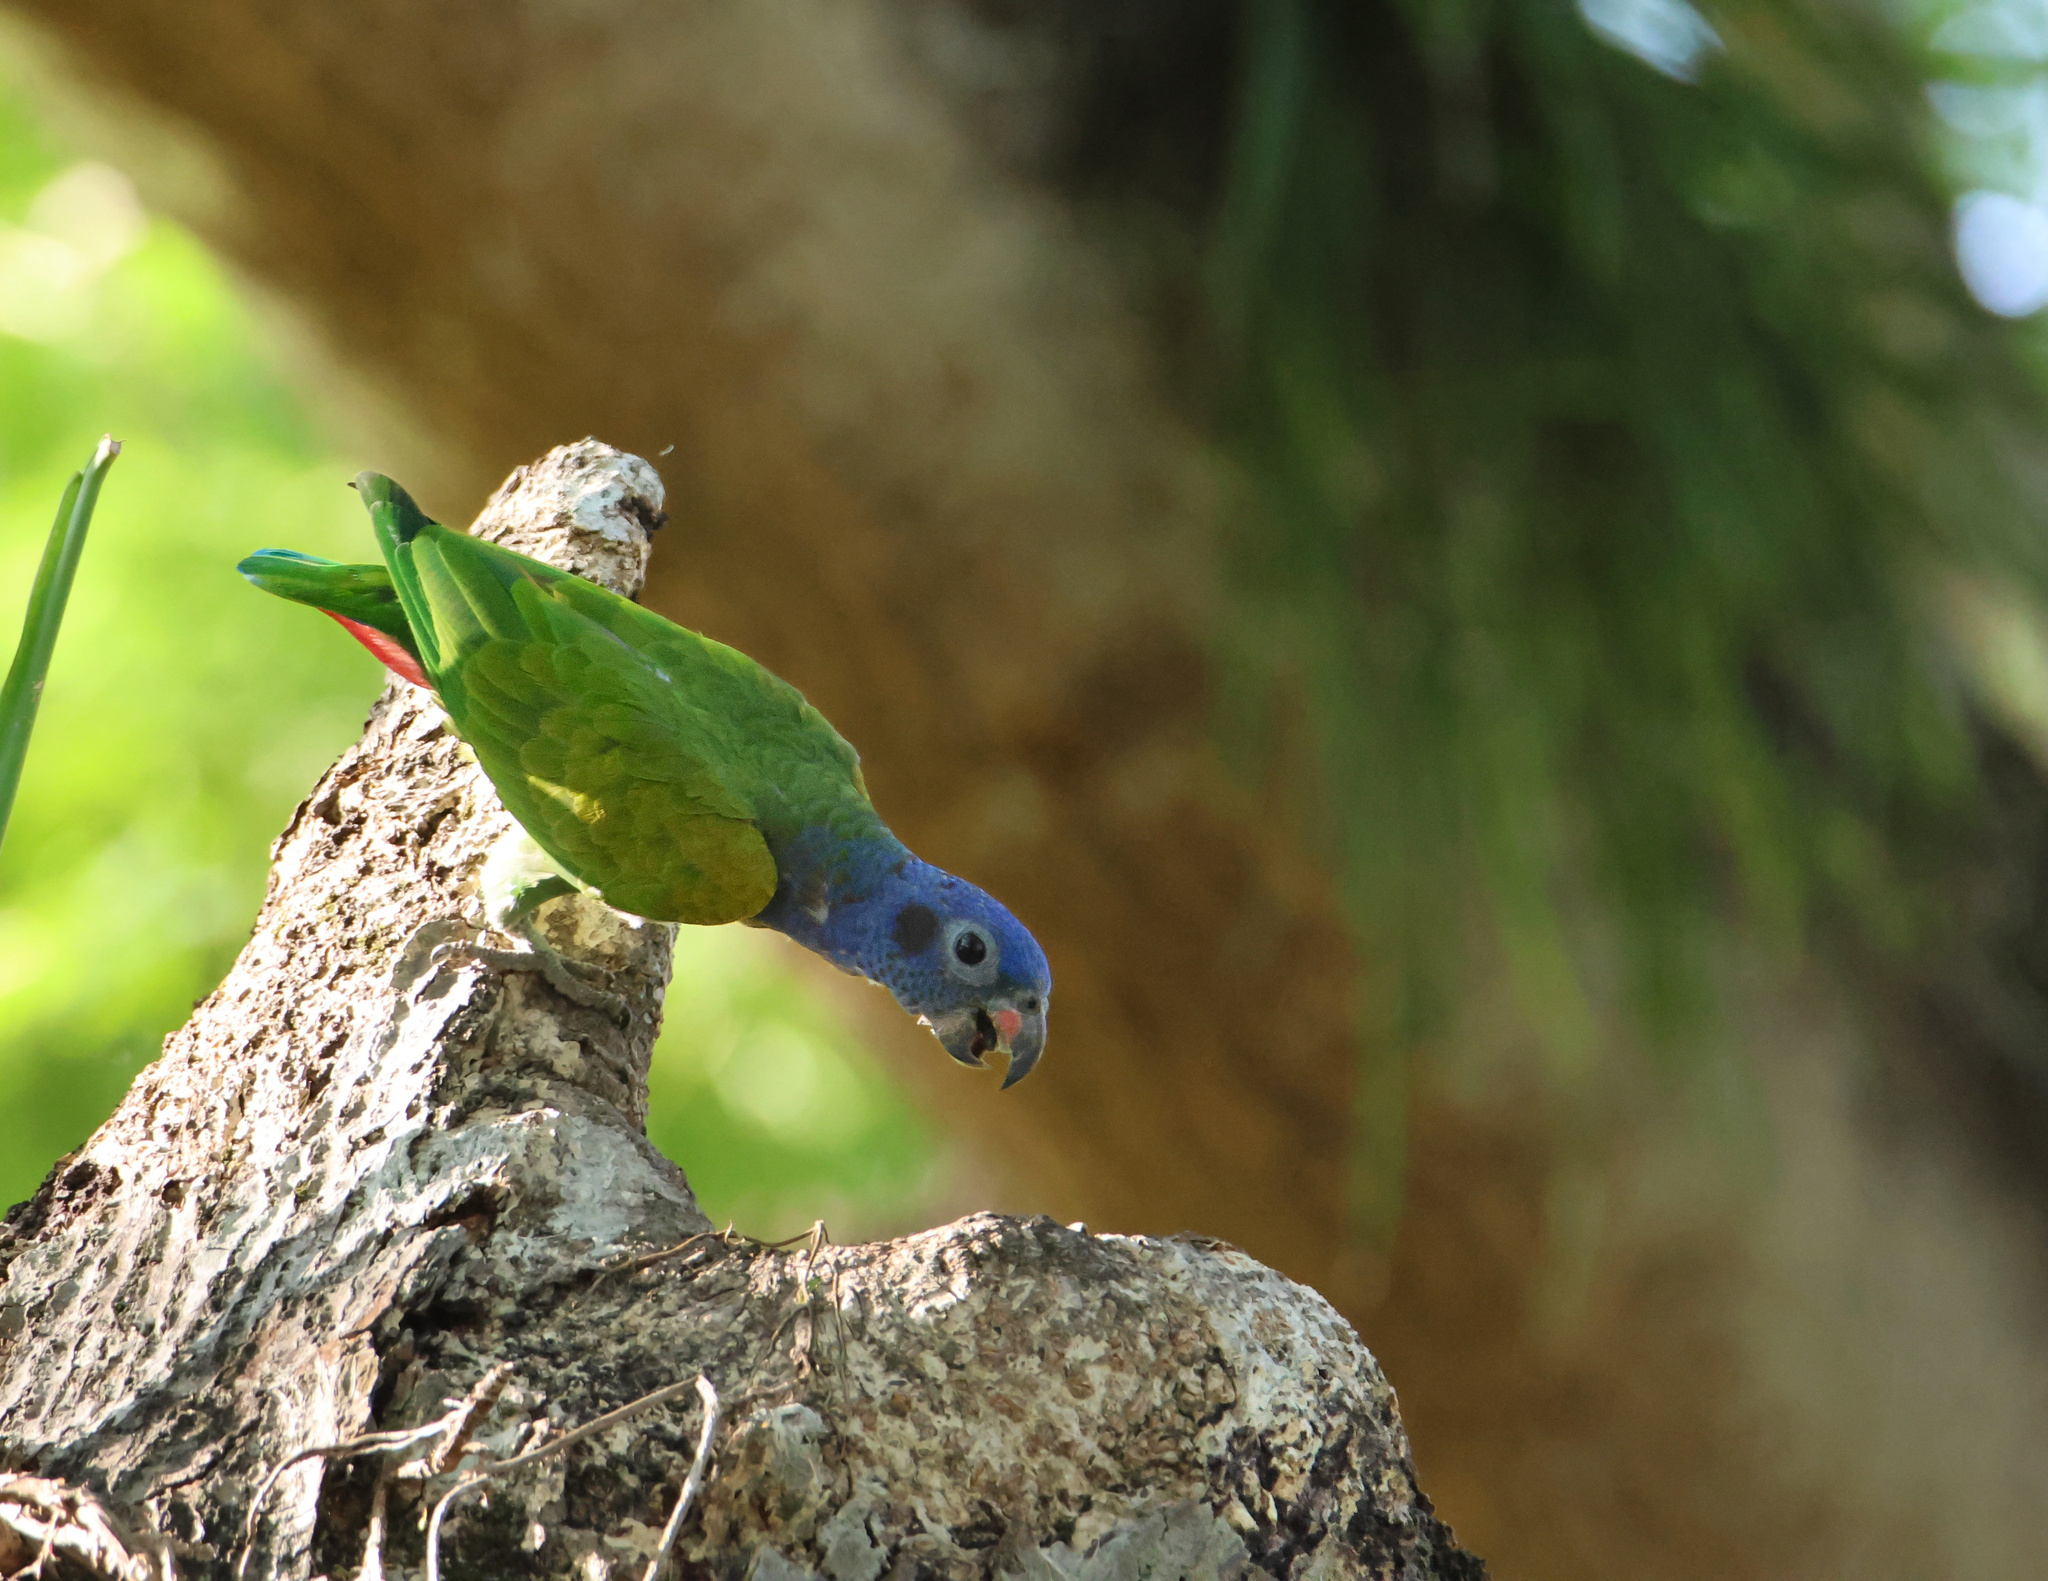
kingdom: Animalia
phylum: Chordata
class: Aves
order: Psittaciformes
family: Psittacidae
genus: Pionus
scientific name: Pionus menstruus
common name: Blue-headed parrot
